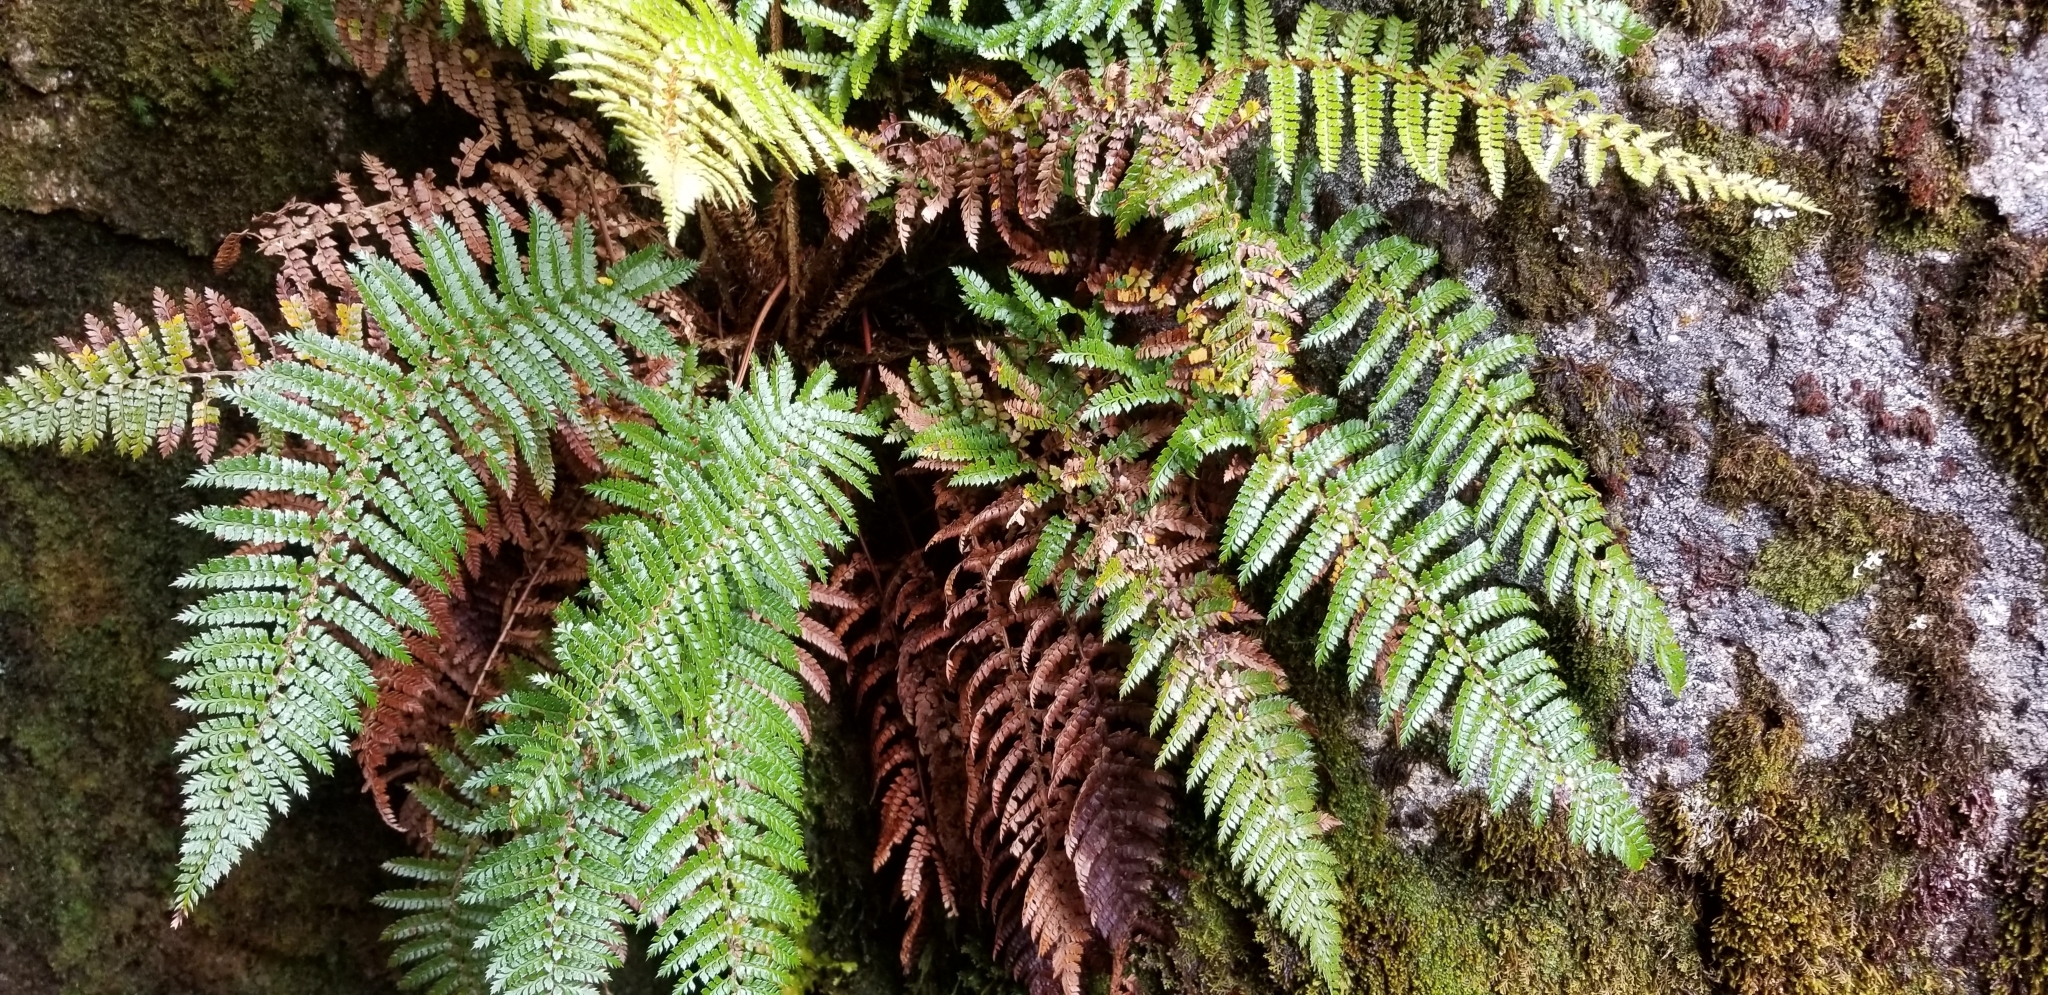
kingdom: Plantae
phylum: Tracheophyta
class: Polypodiopsida
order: Polypodiales
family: Dryopteridaceae
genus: Polystichum
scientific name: Polystichum vestitum
